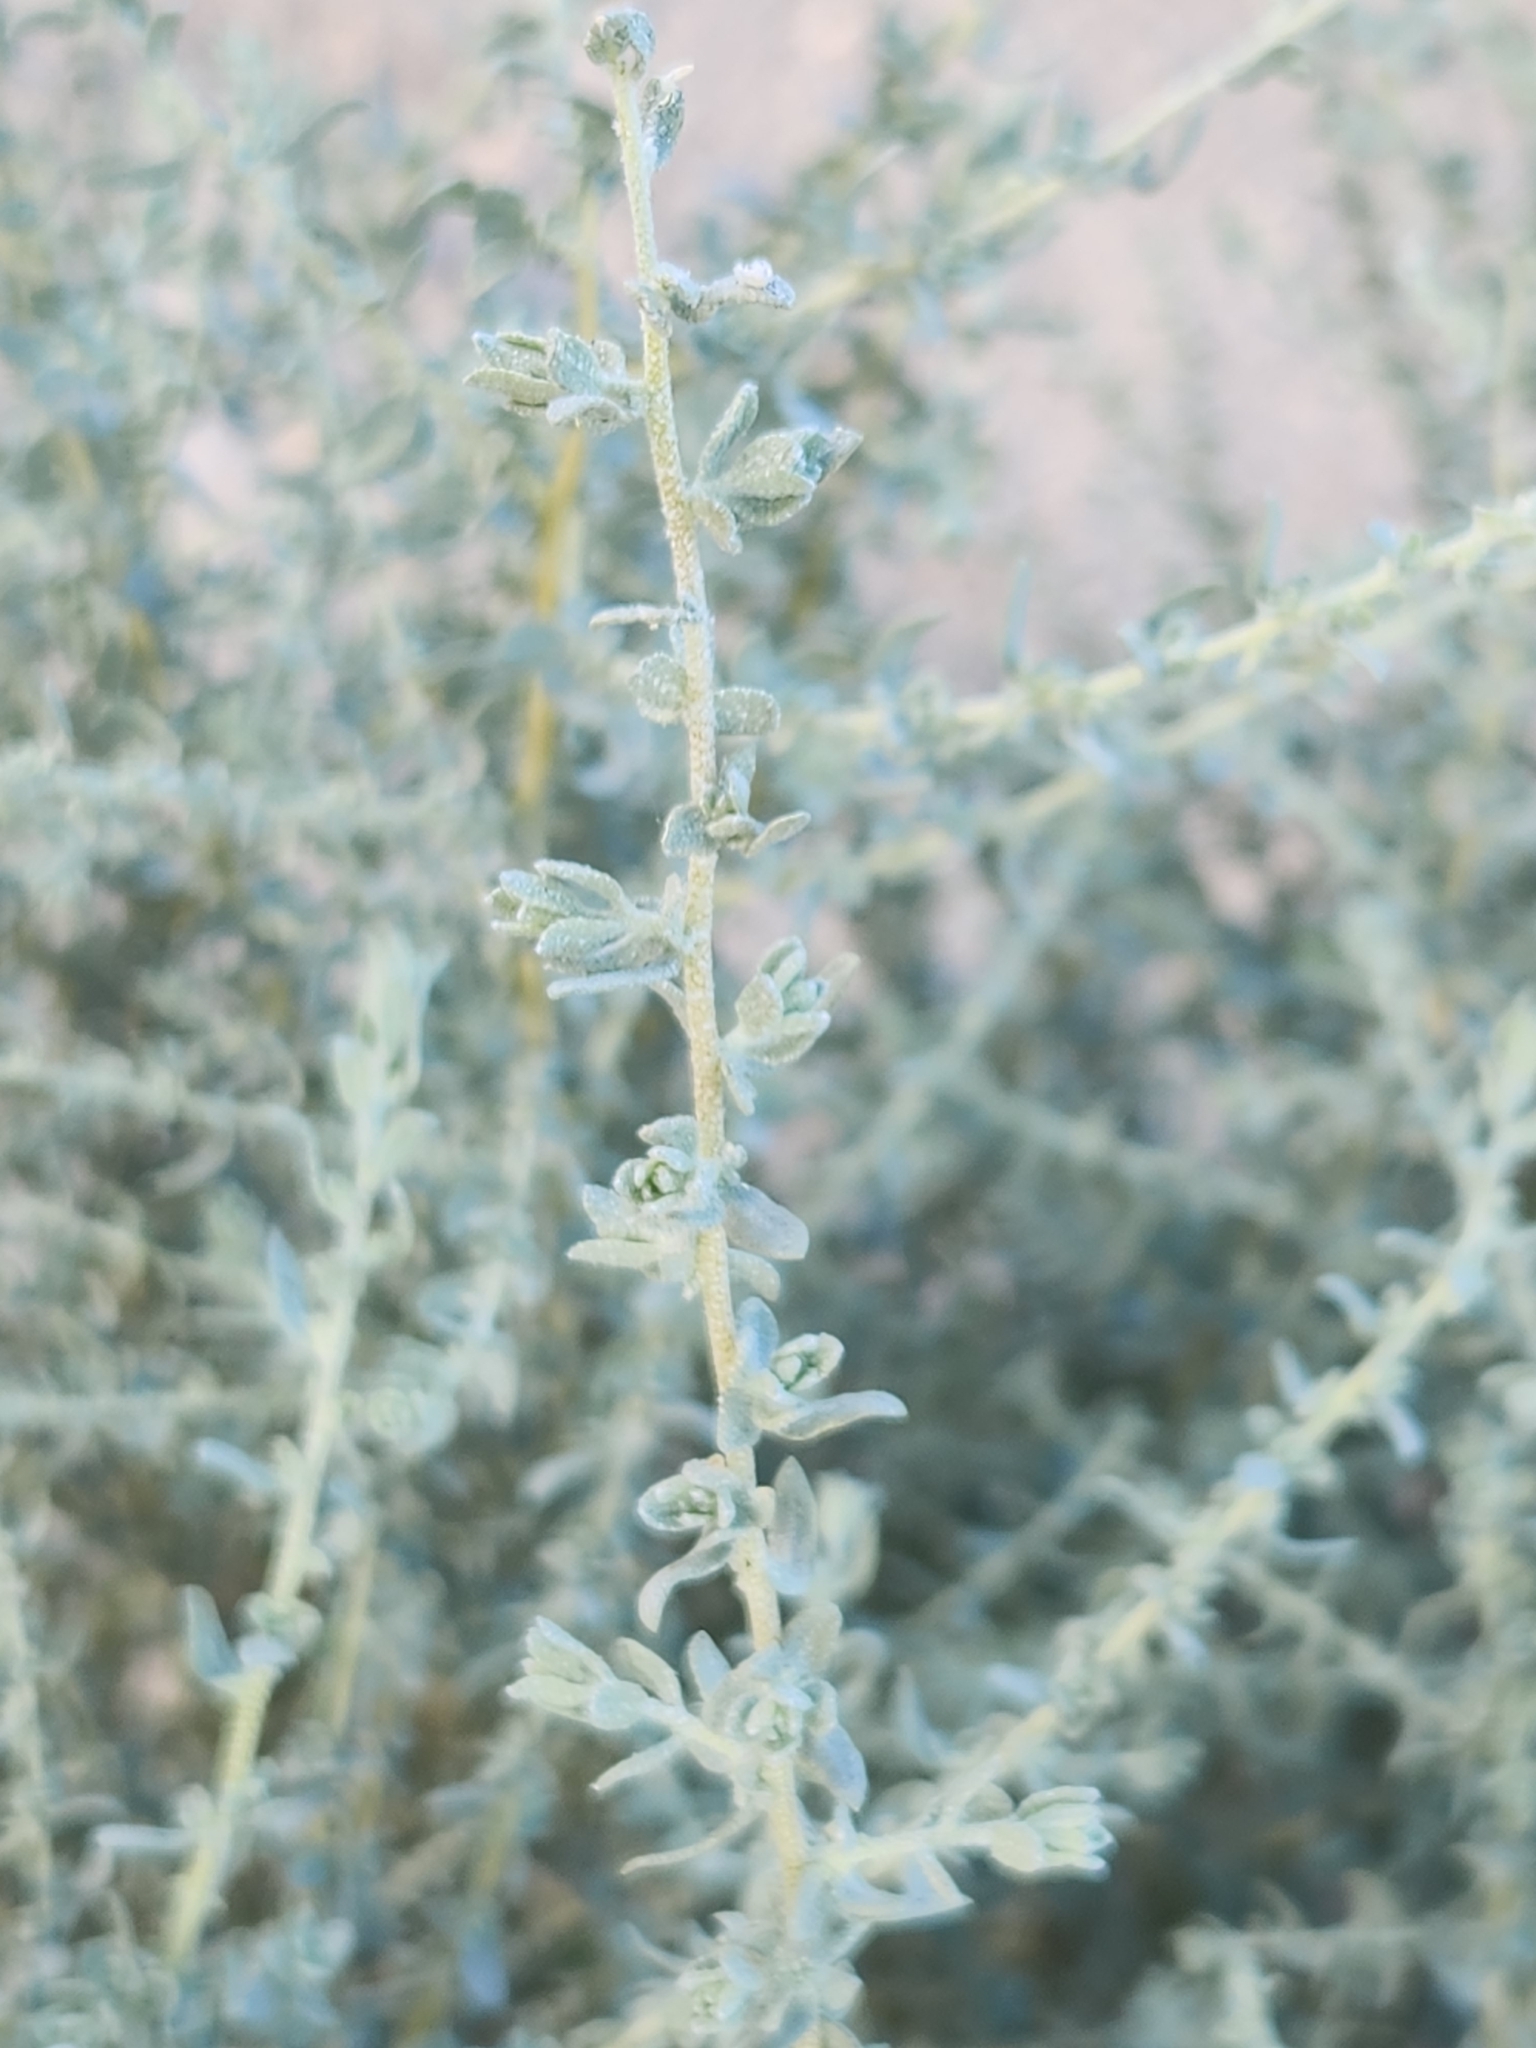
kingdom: Plantae
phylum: Tracheophyta
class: Magnoliopsida
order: Caryophyllales
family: Amaranthaceae
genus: Atriplex
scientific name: Atriplex polycarpa
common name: Desert saltbush
